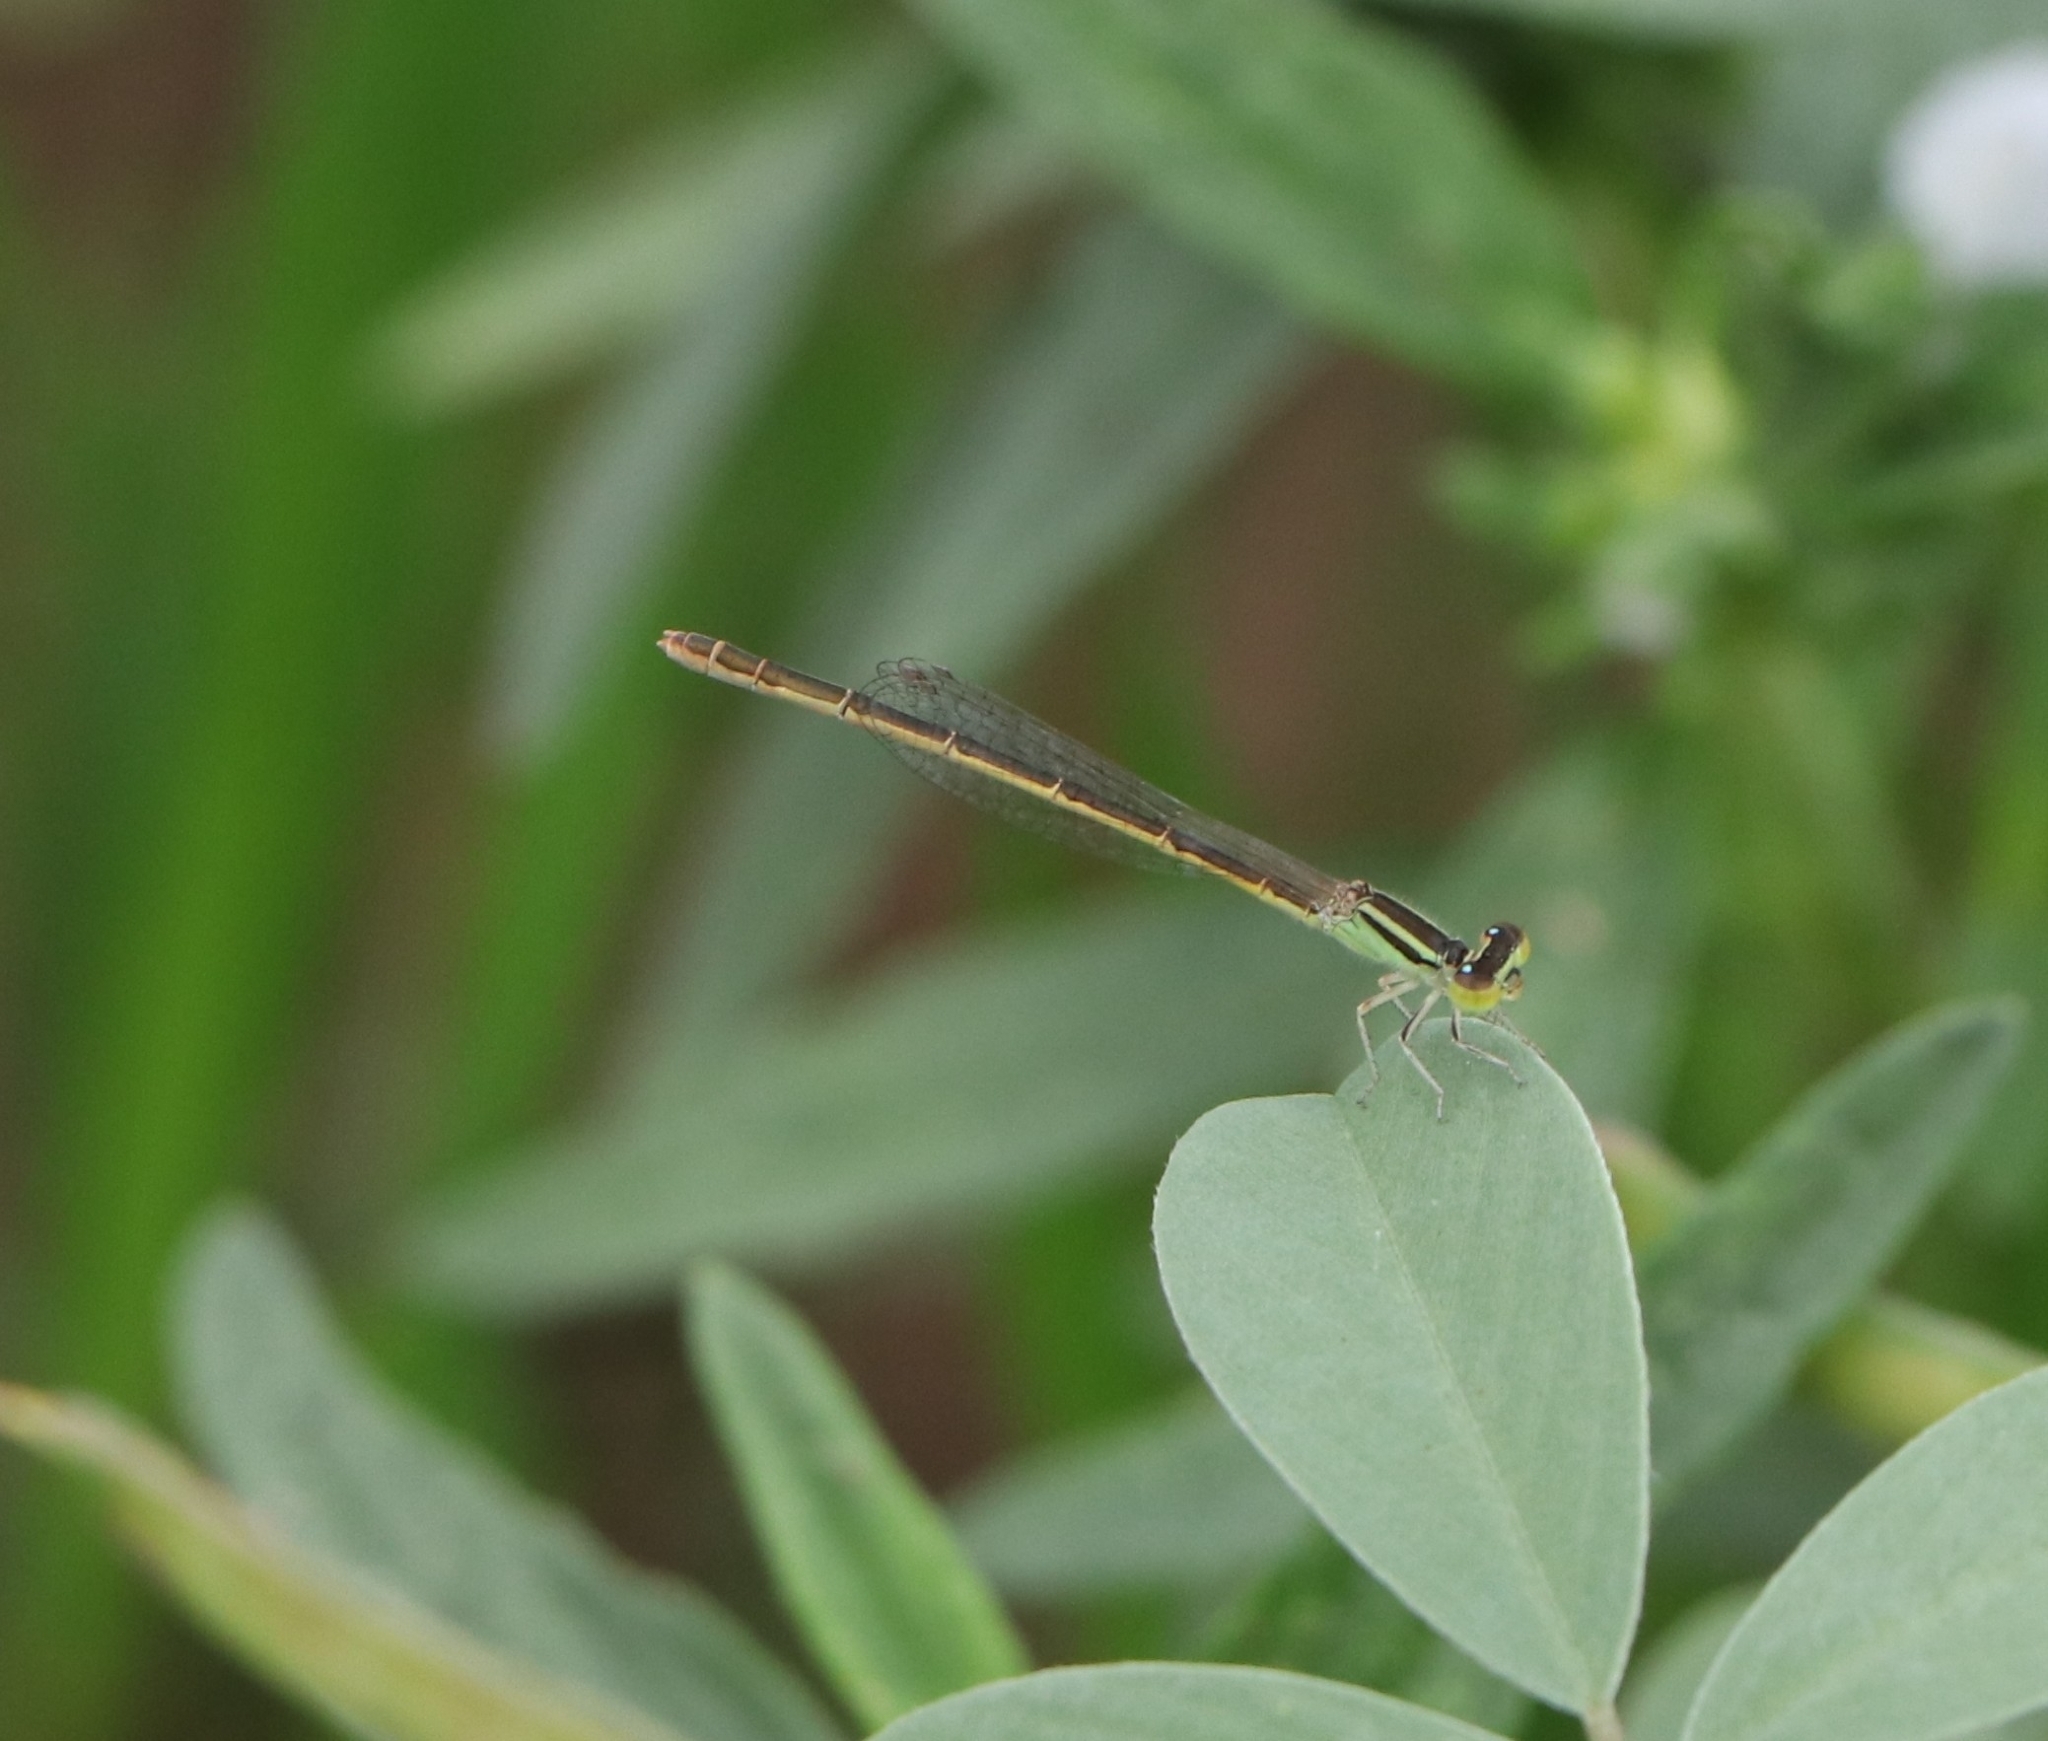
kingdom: Animalia
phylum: Arthropoda
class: Insecta
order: Odonata
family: Coenagrionidae
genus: Ischnura
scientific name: Ischnura rubilio
